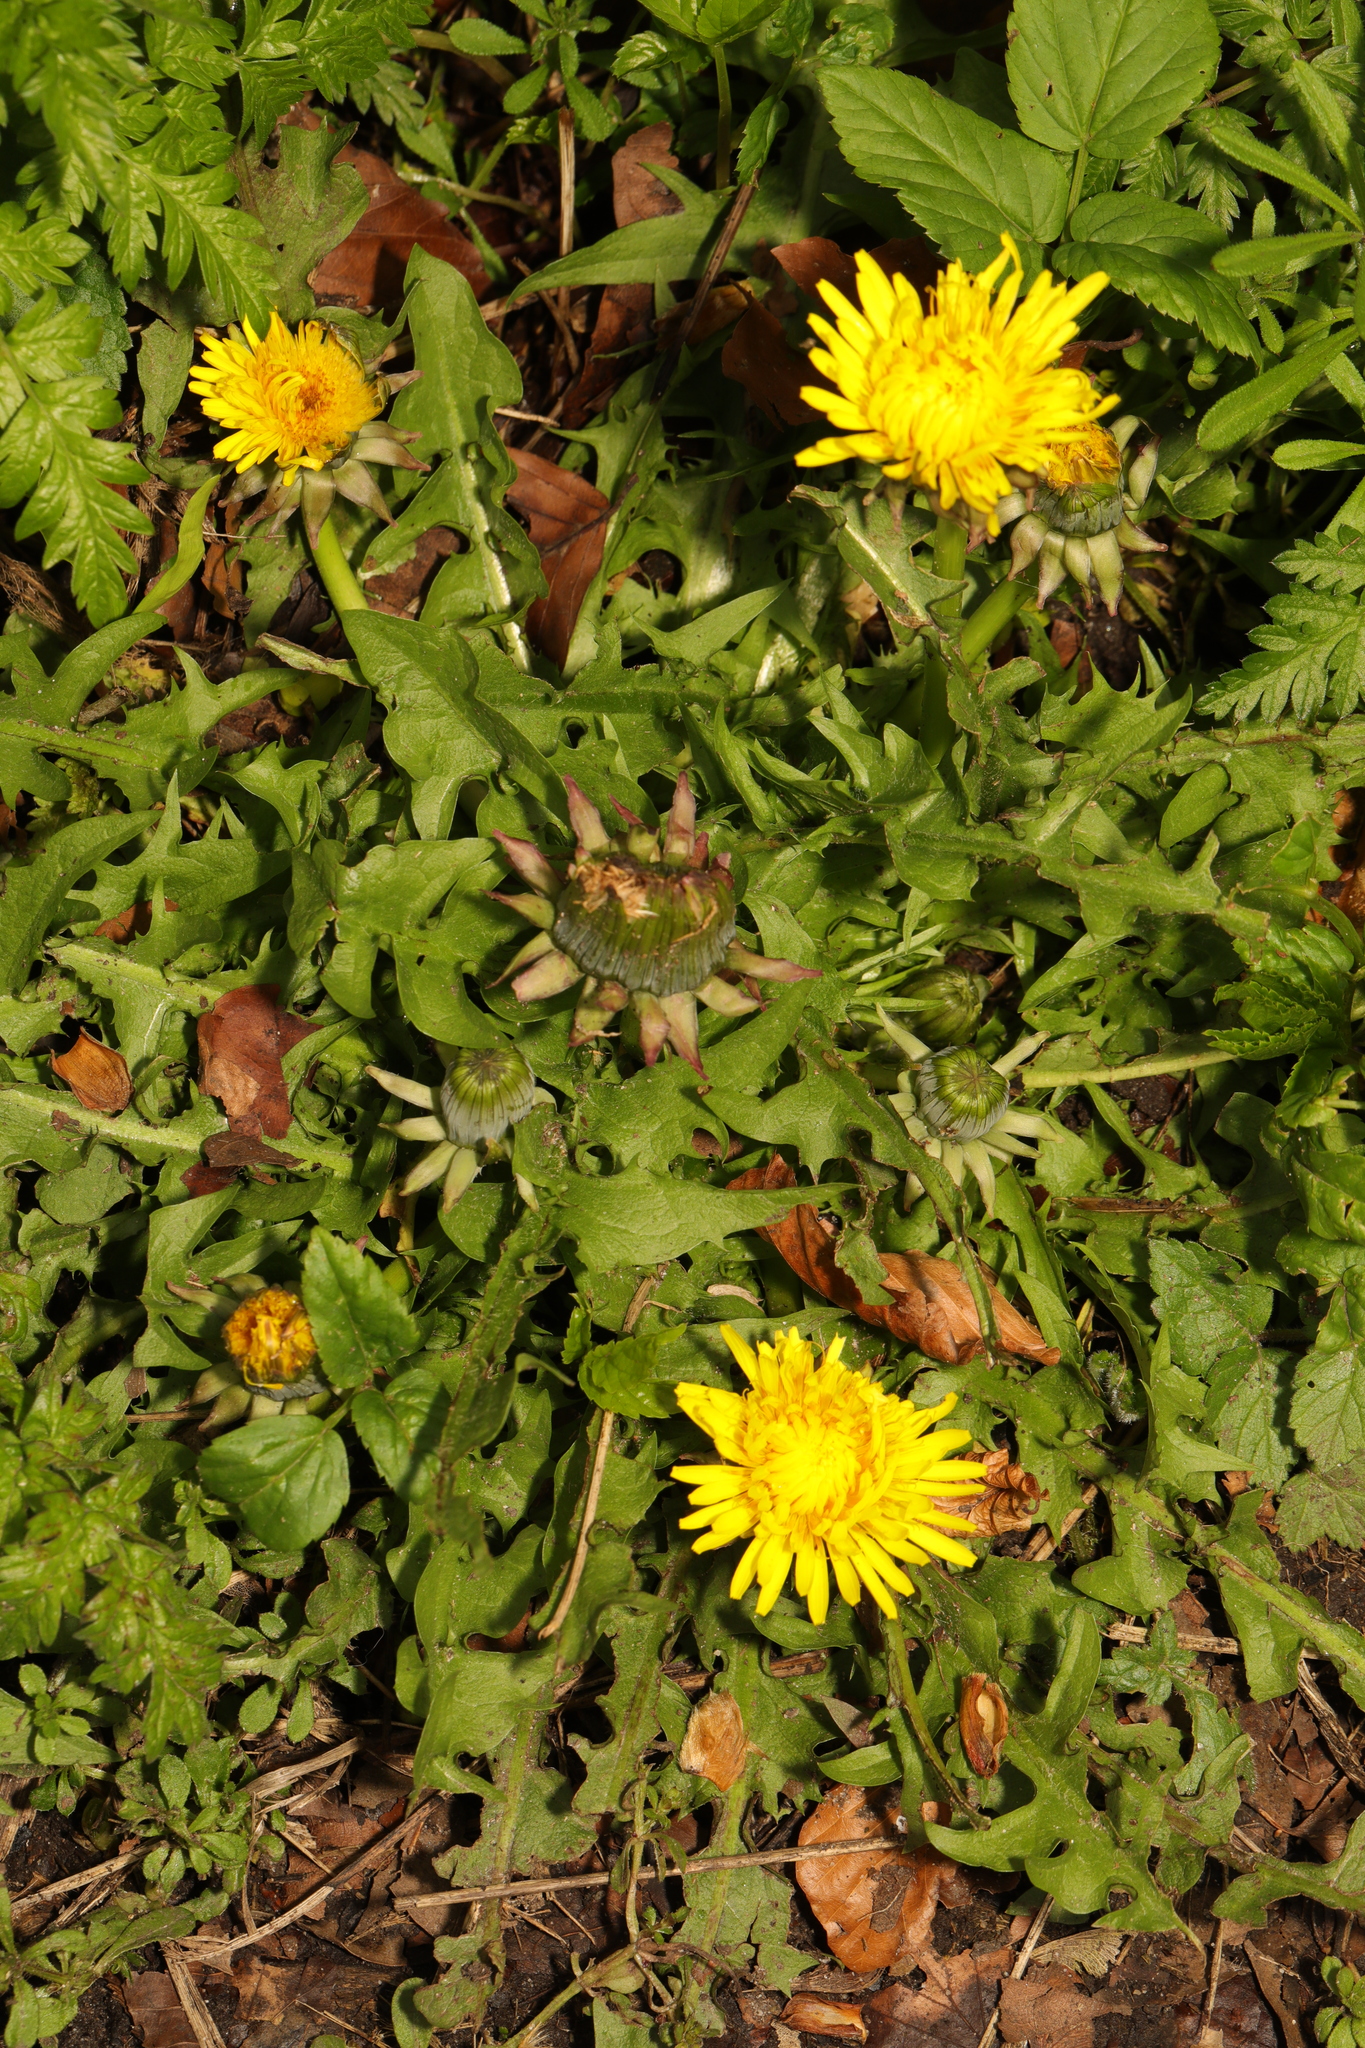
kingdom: Plantae
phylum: Tracheophyta
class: Magnoliopsida
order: Asterales
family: Asteraceae
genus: Taraxacum
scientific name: Taraxacum officinale
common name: Common dandelion
